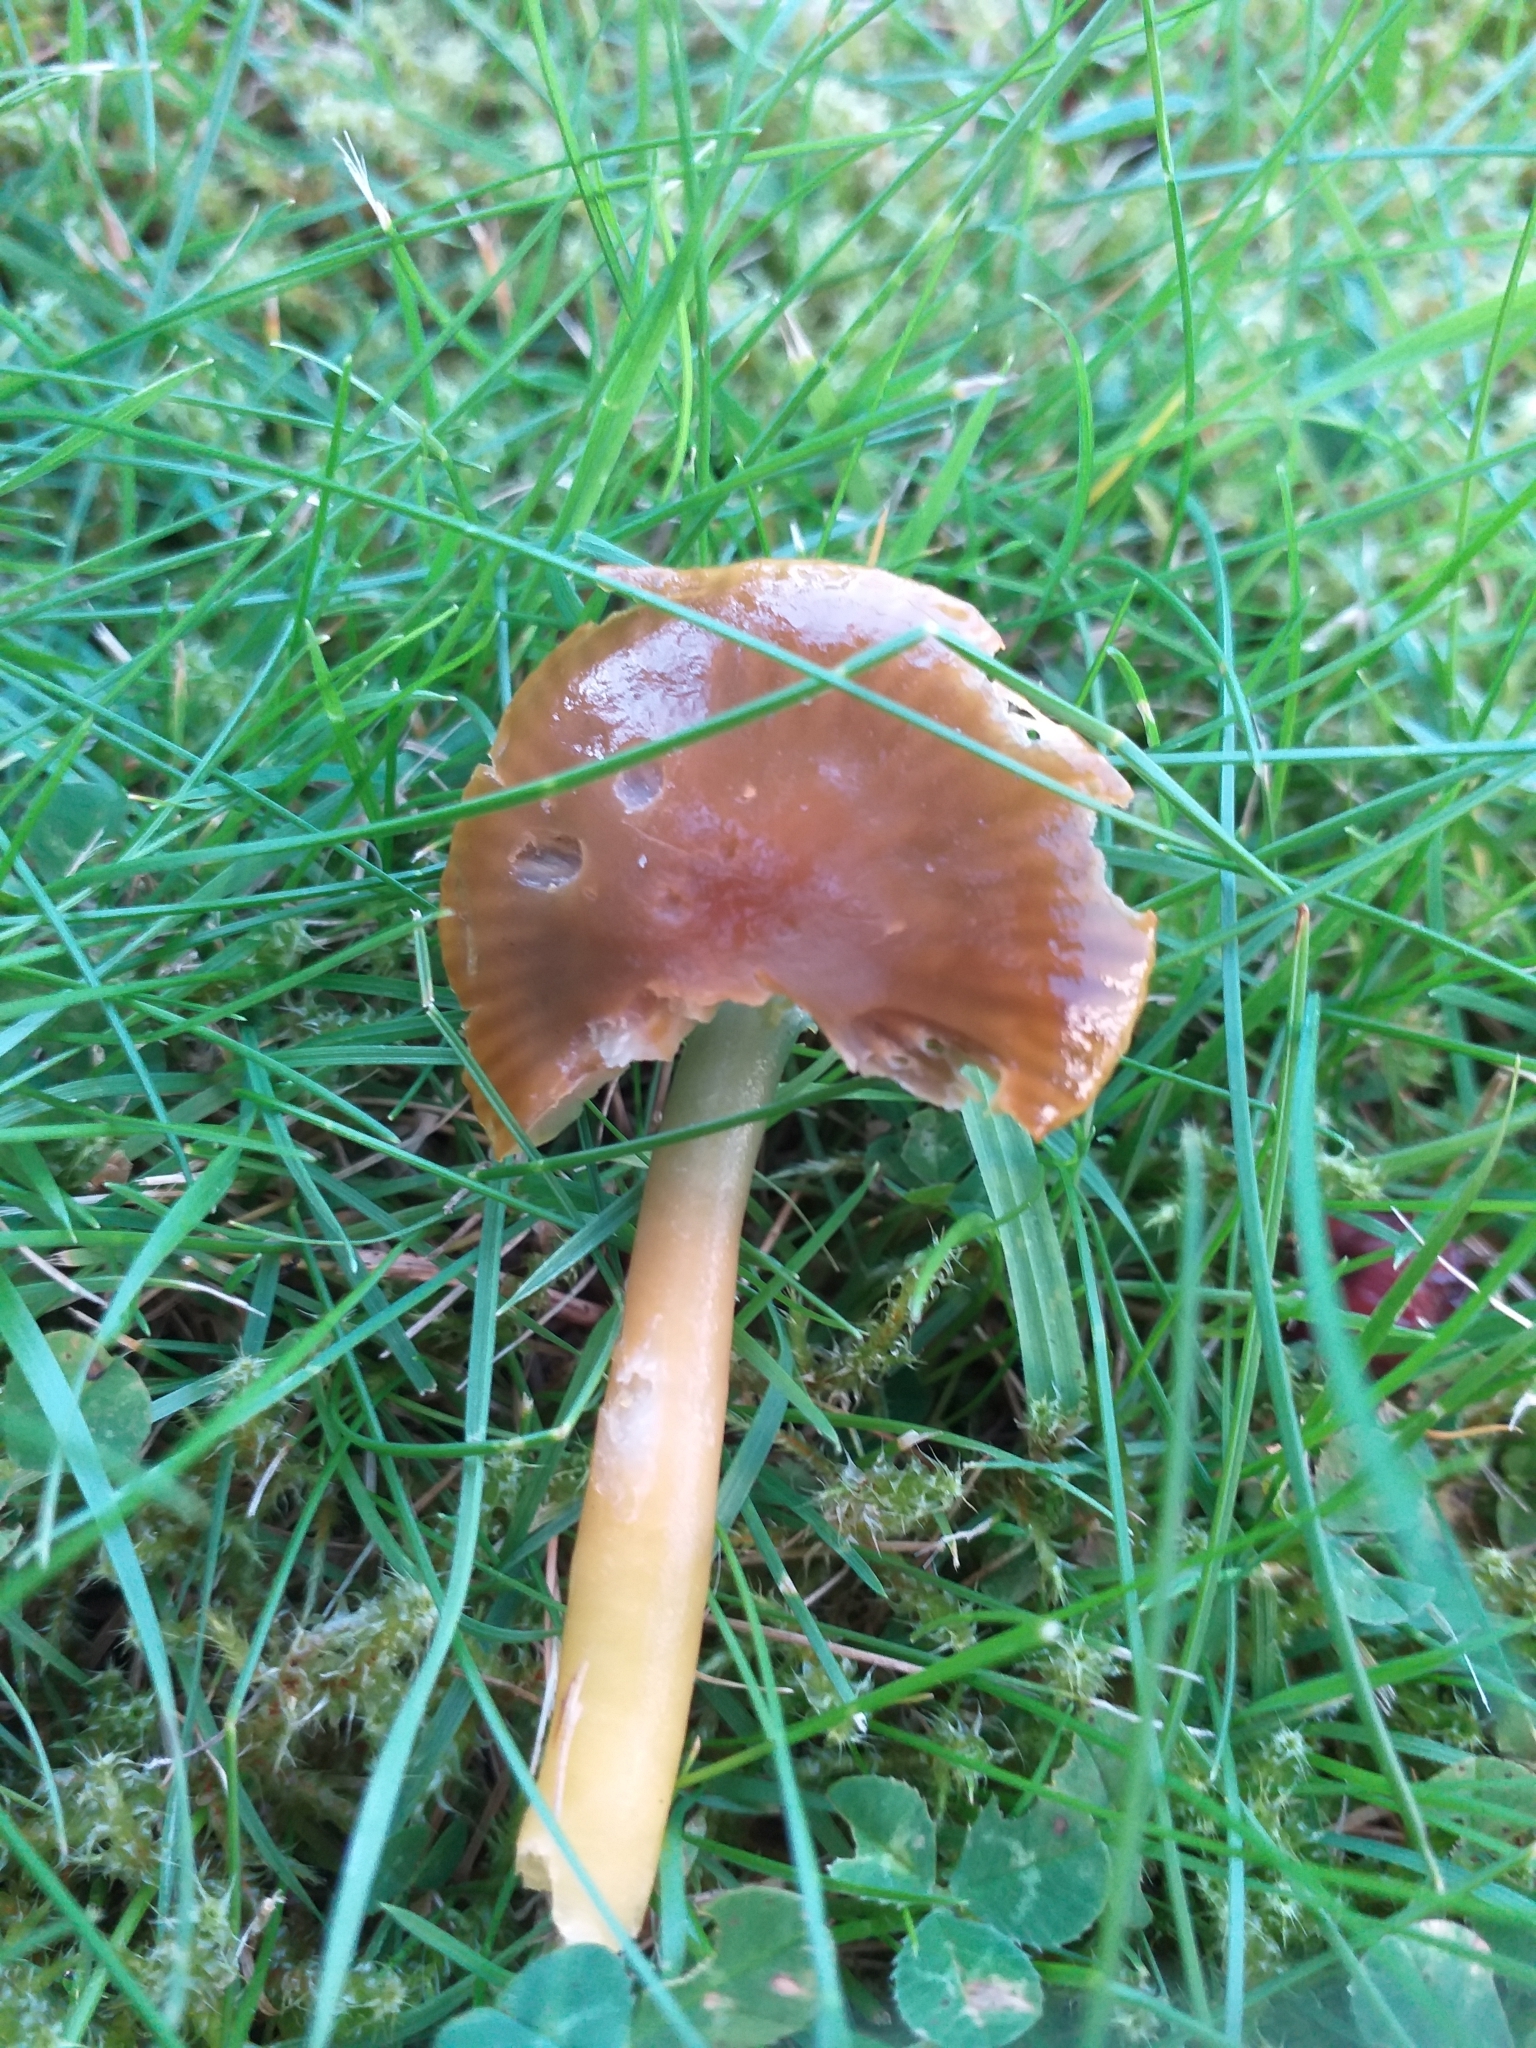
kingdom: Fungi
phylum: Basidiomycota
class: Agaricomycetes
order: Agaricales
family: Hygrophoraceae
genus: Gliophorus
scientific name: Gliophorus psittacinus
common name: Parrot wax-cap
